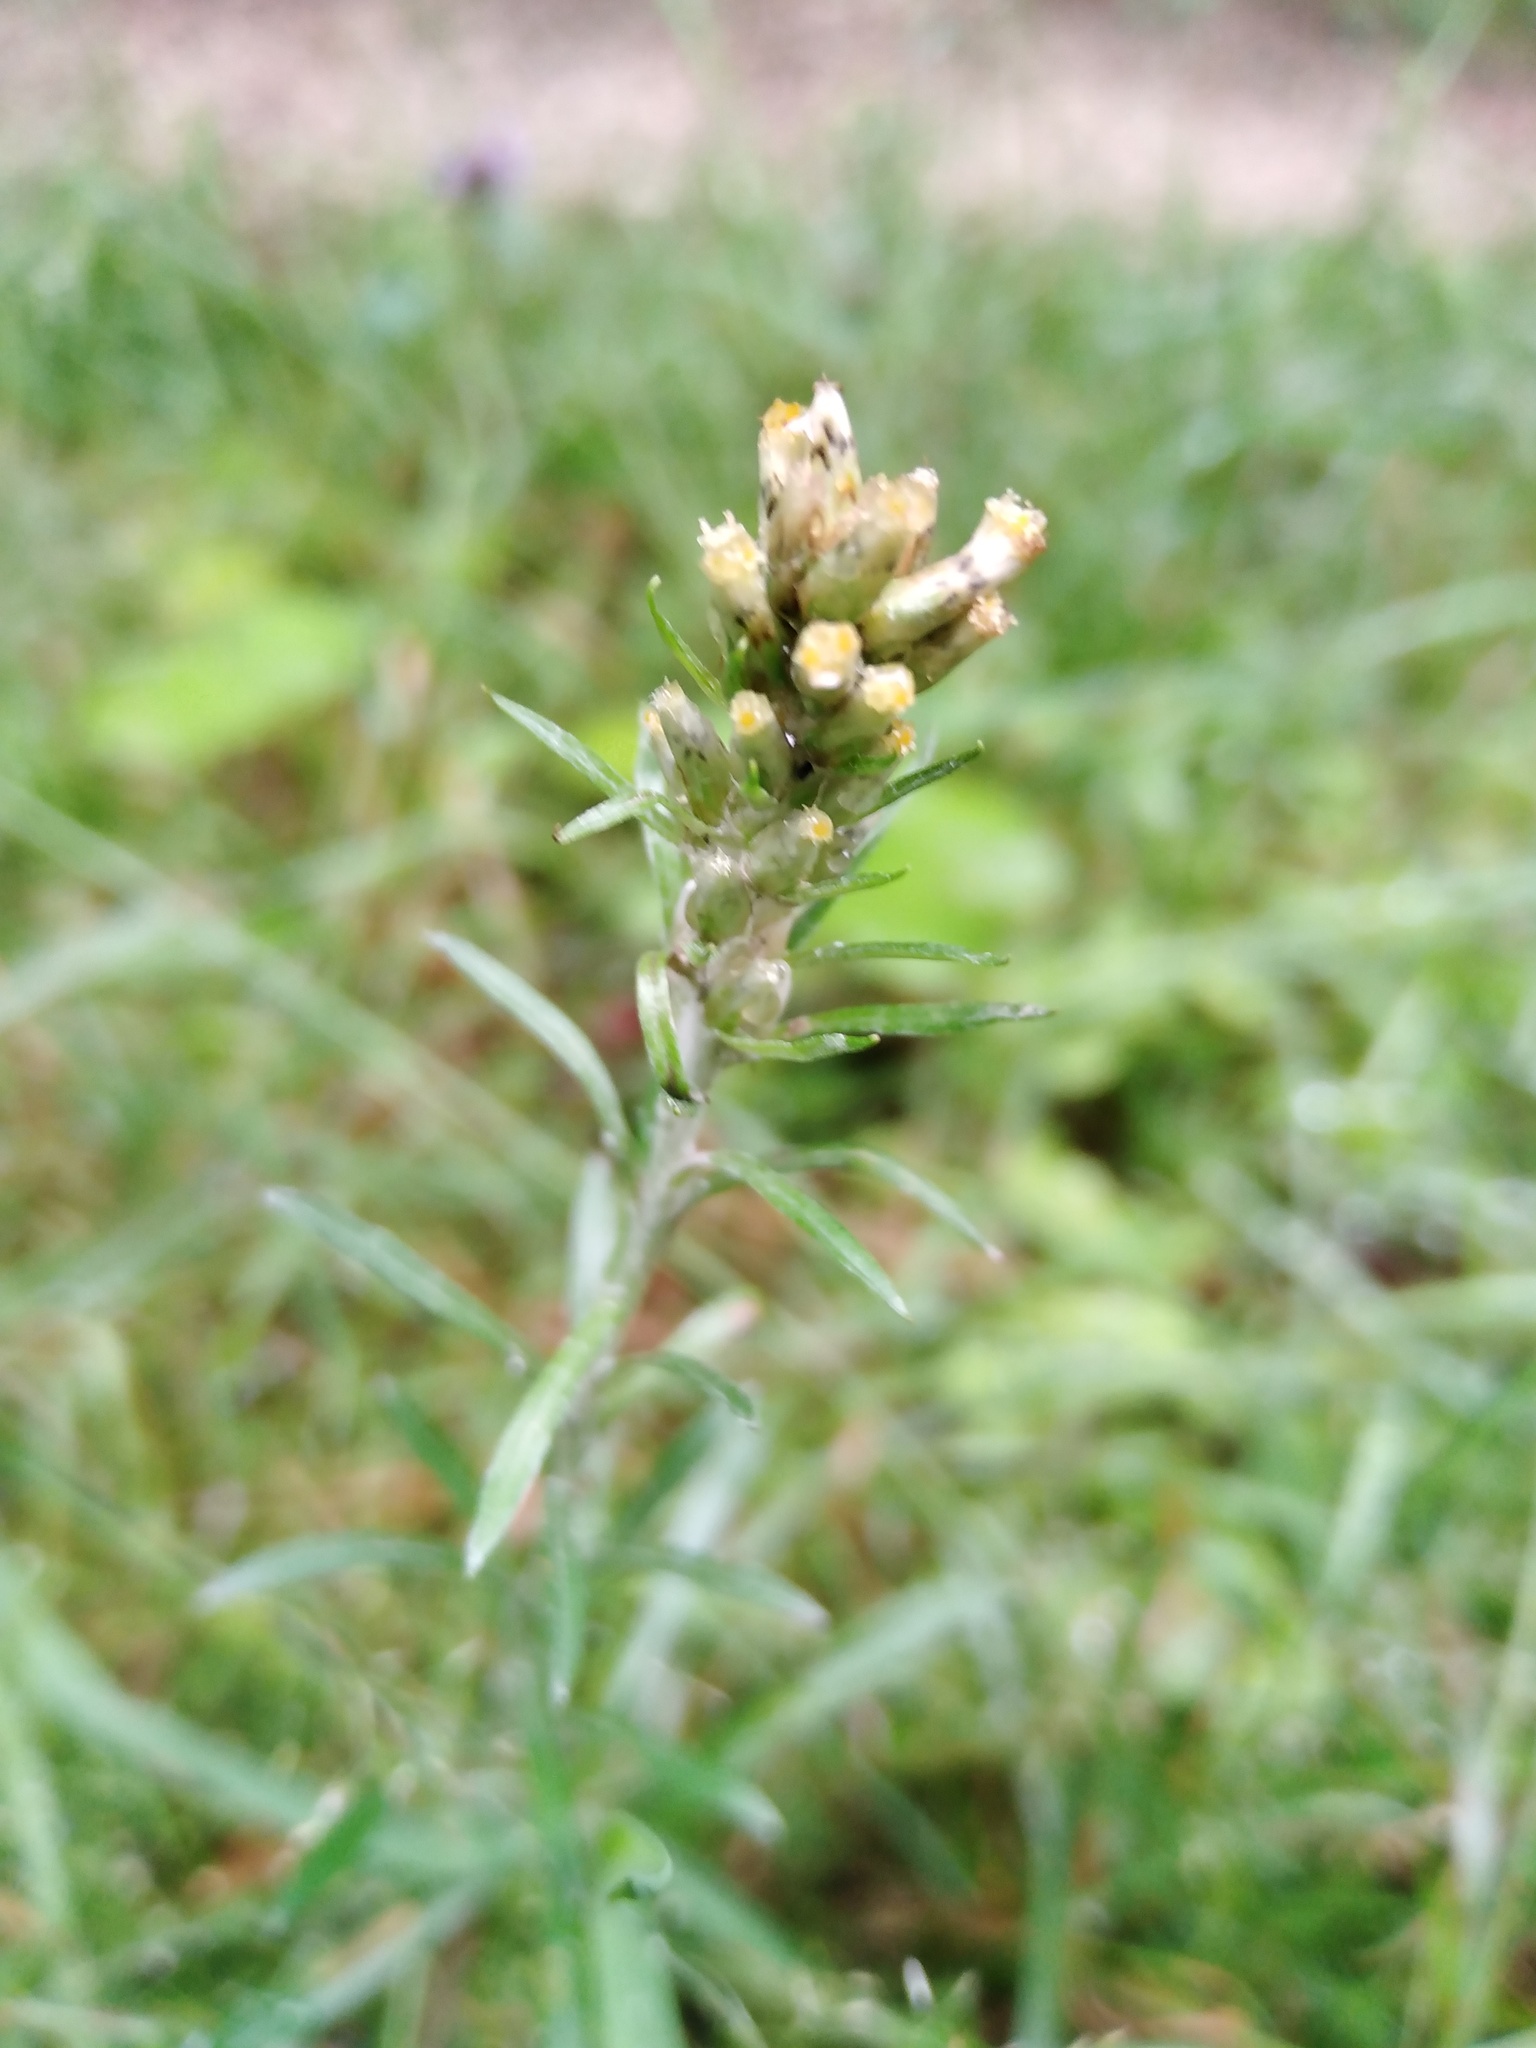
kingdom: Plantae
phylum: Tracheophyta
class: Magnoliopsida
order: Asterales
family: Asteraceae
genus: Omalotheca
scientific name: Omalotheca sylvatica
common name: Heath cudweed
